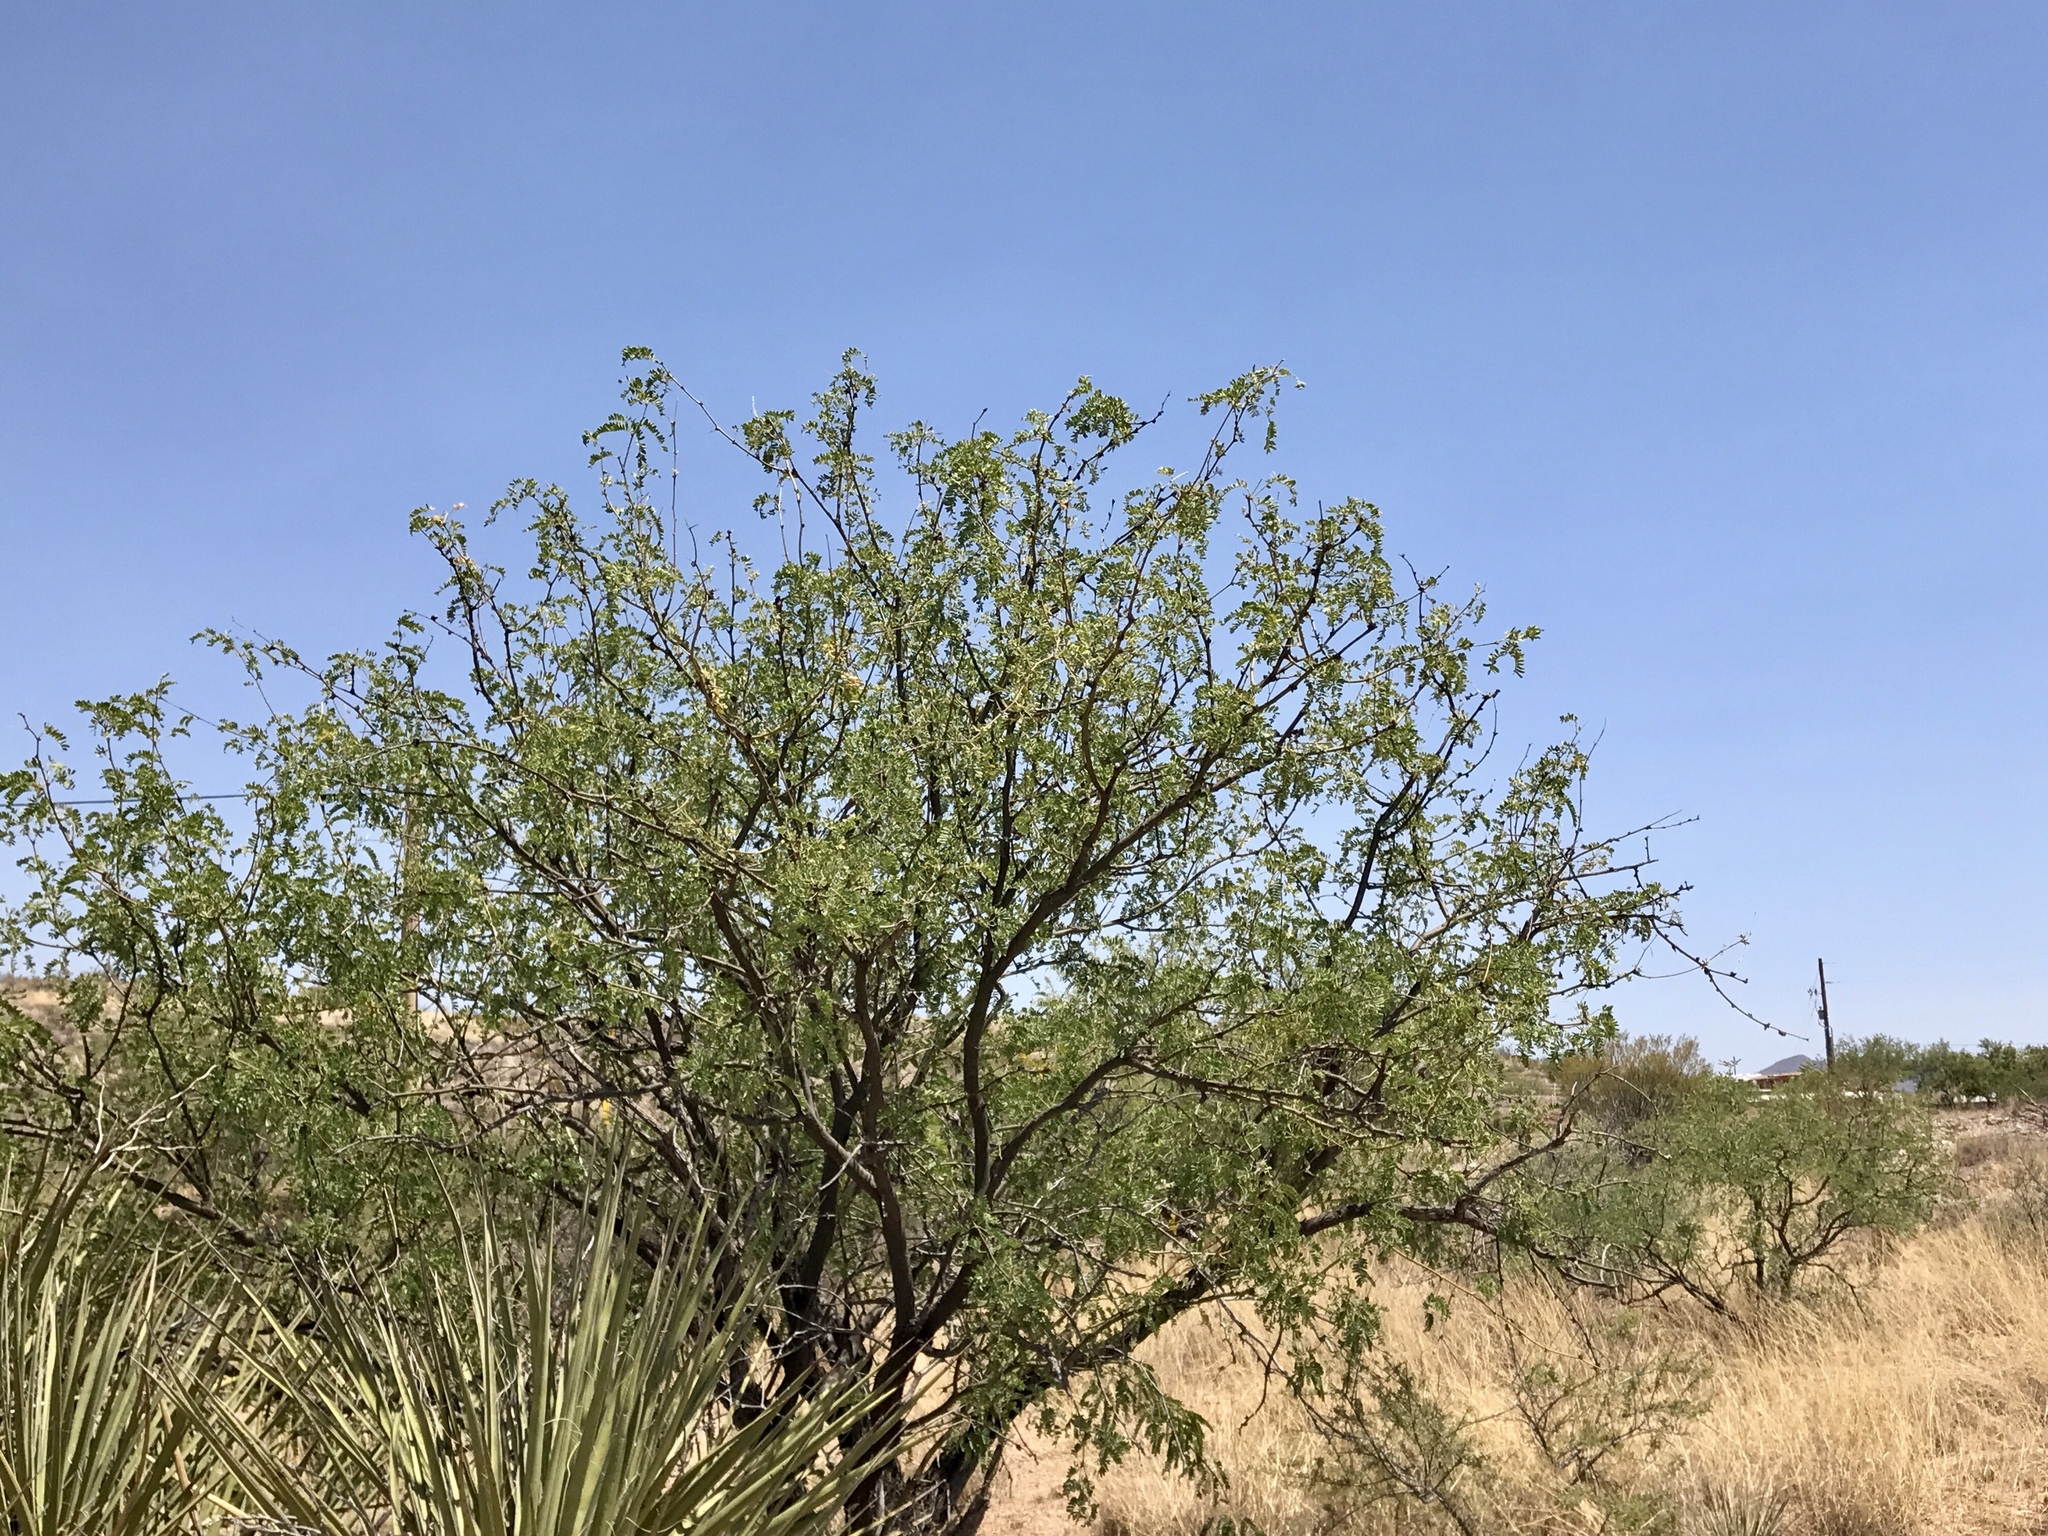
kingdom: Plantae
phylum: Tracheophyta
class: Magnoliopsida
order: Fabales
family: Fabaceae
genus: Prosopis
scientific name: Prosopis velutina
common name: Velvet mesquite
